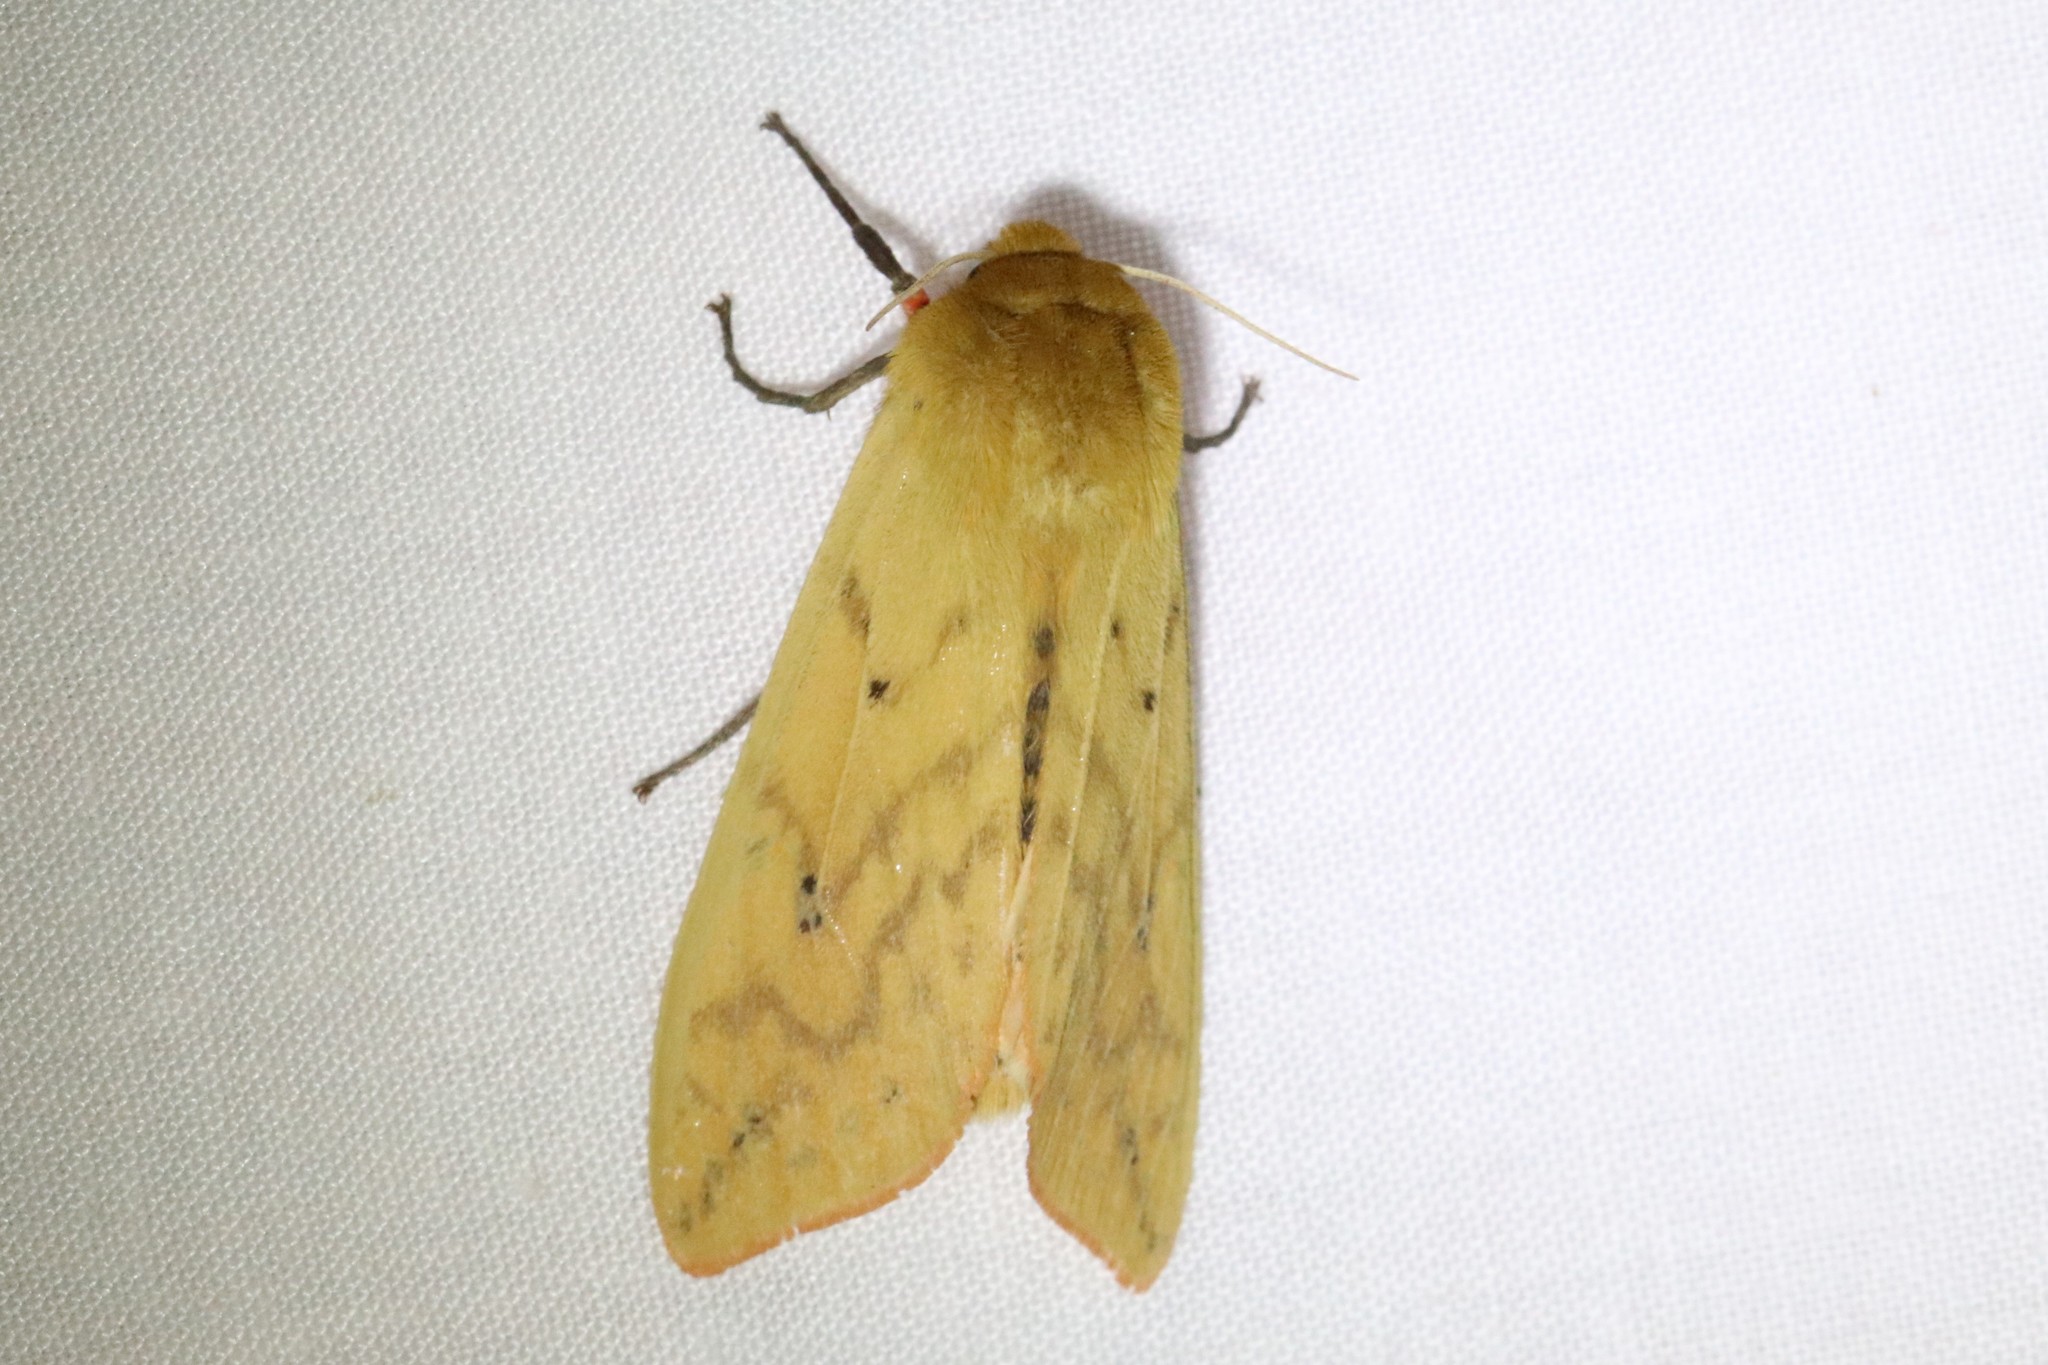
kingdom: Animalia
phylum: Arthropoda
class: Insecta
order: Lepidoptera
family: Erebidae
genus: Pyrrharctia
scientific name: Pyrrharctia isabella
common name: Isabella tiger moth
